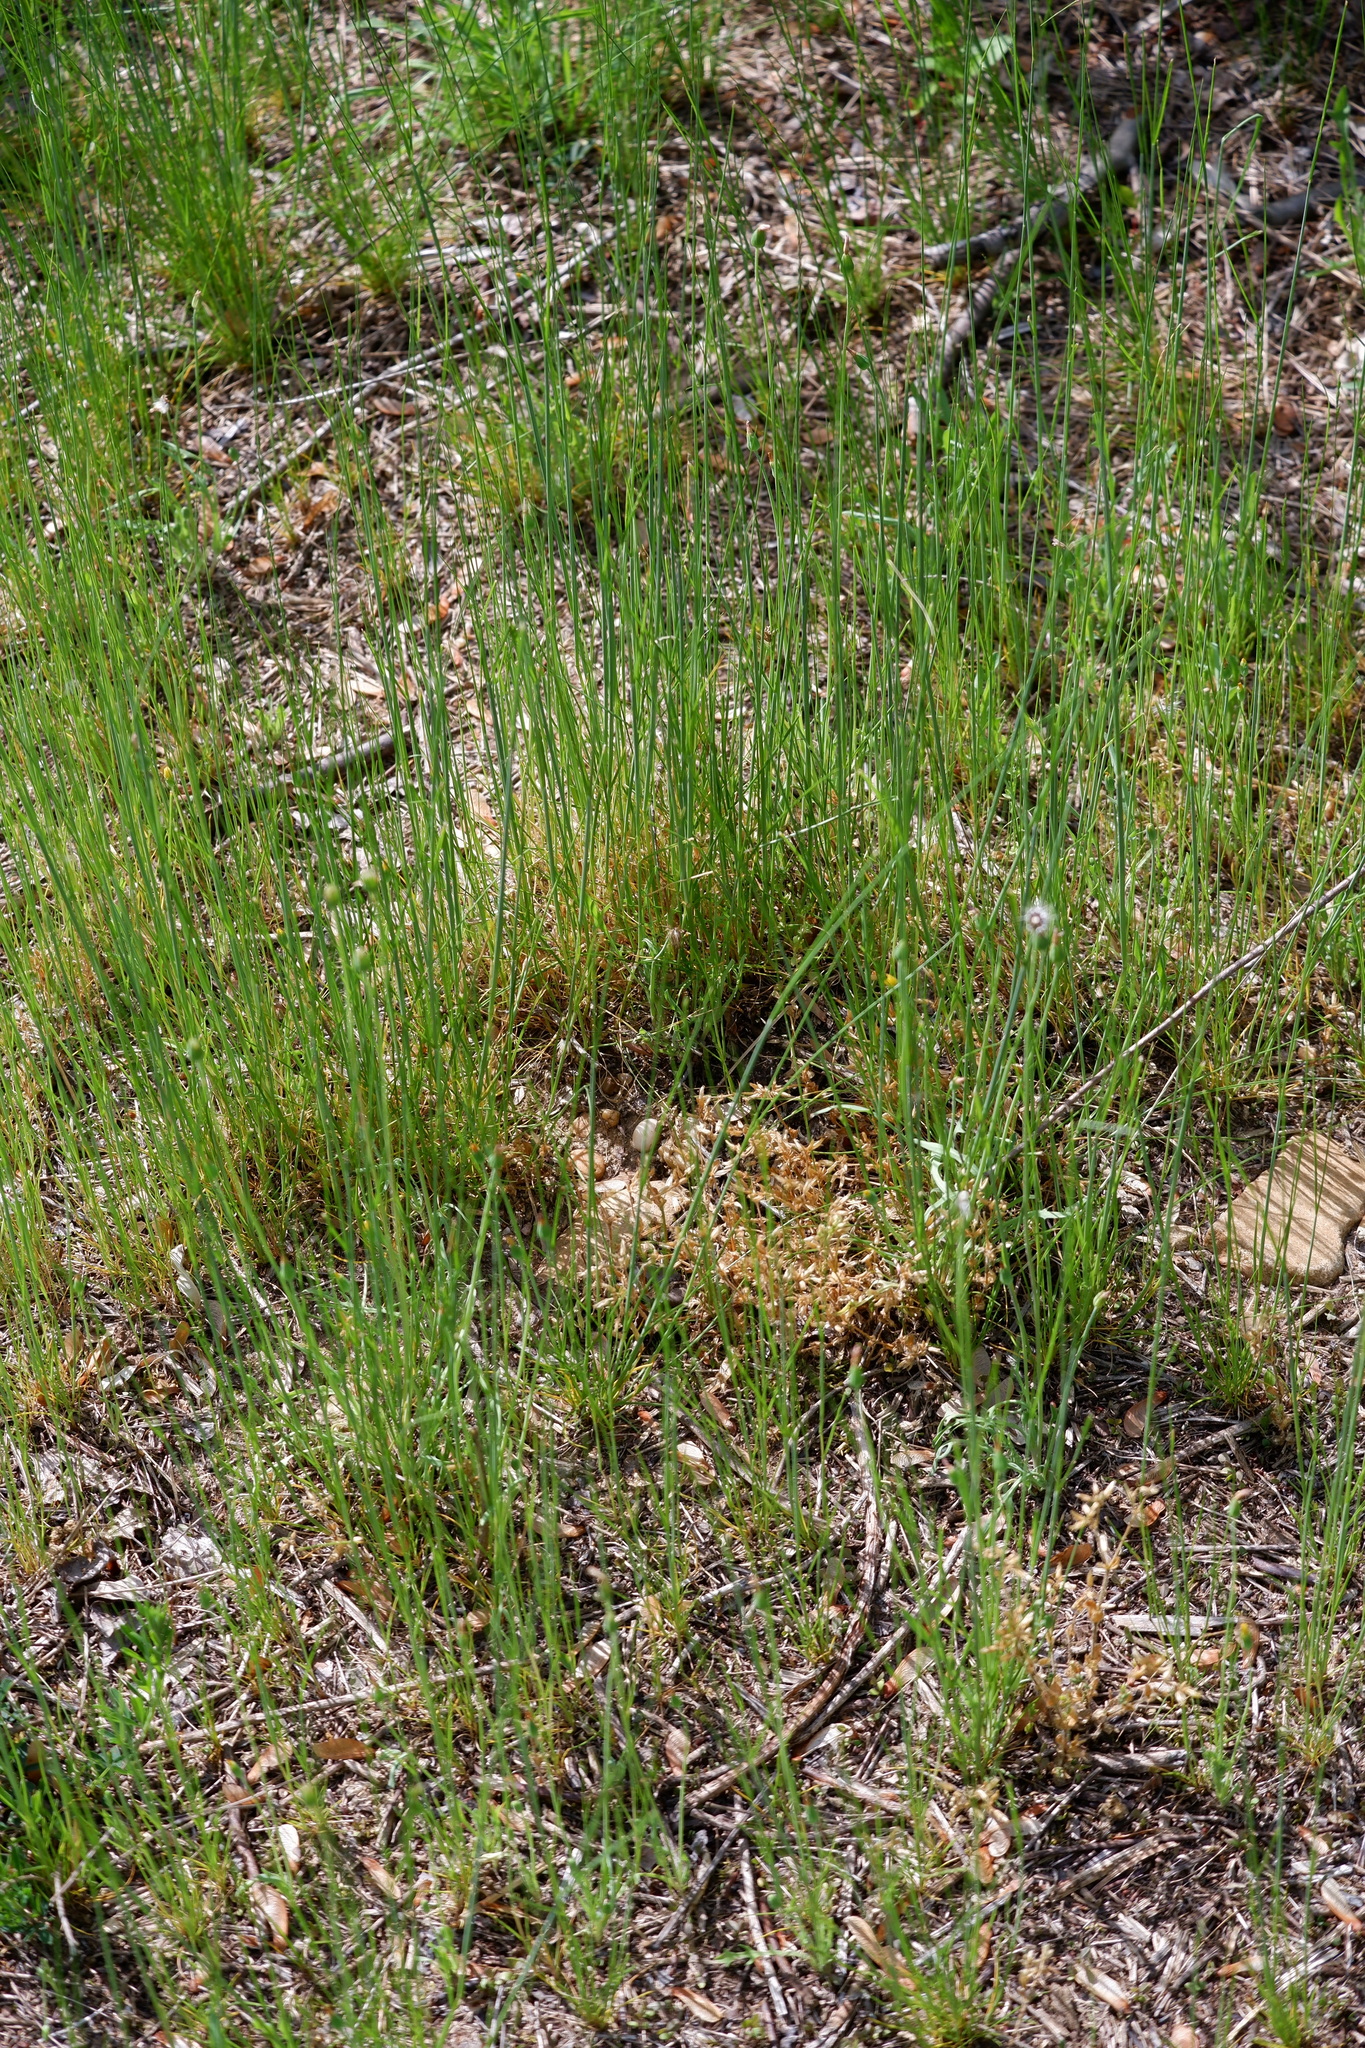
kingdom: Plantae
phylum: Tracheophyta
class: Magnoliopsida
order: Asterales
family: Asteraceae
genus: Krigia
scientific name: Krigia virginica
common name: Virginia dwarf-dandelion
